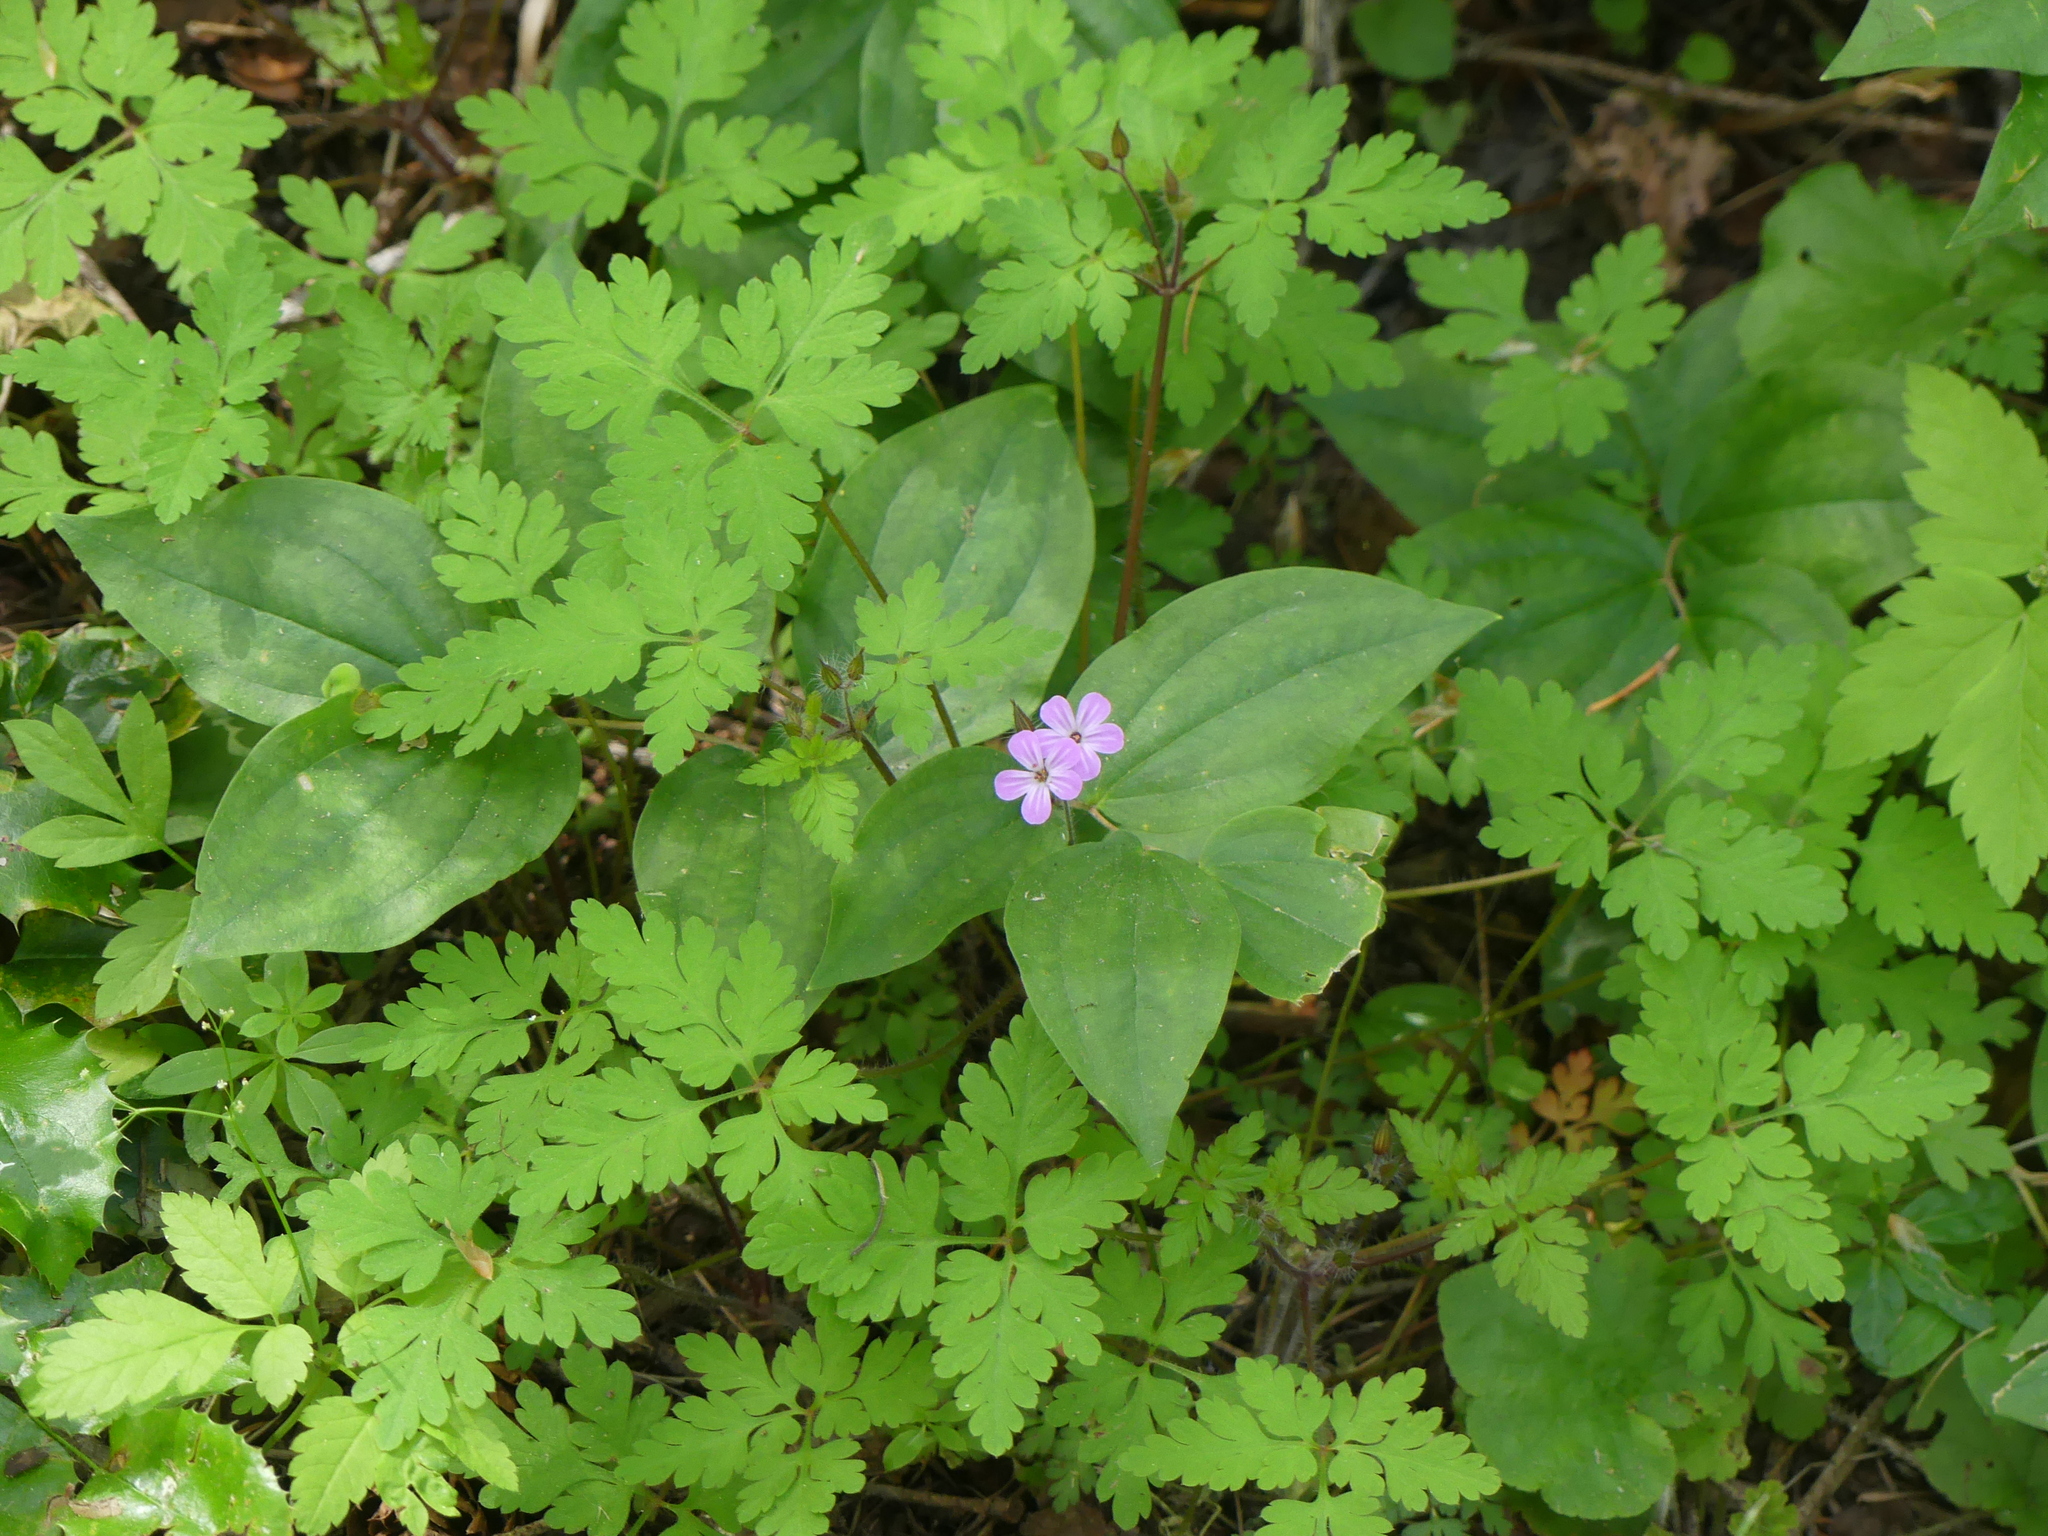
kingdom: Plantae
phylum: Tracheophyta
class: Magnoliopsida
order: Geraniales
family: Geraniaceae
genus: Geranium
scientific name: Geranium robertianum
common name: Herb-robert
